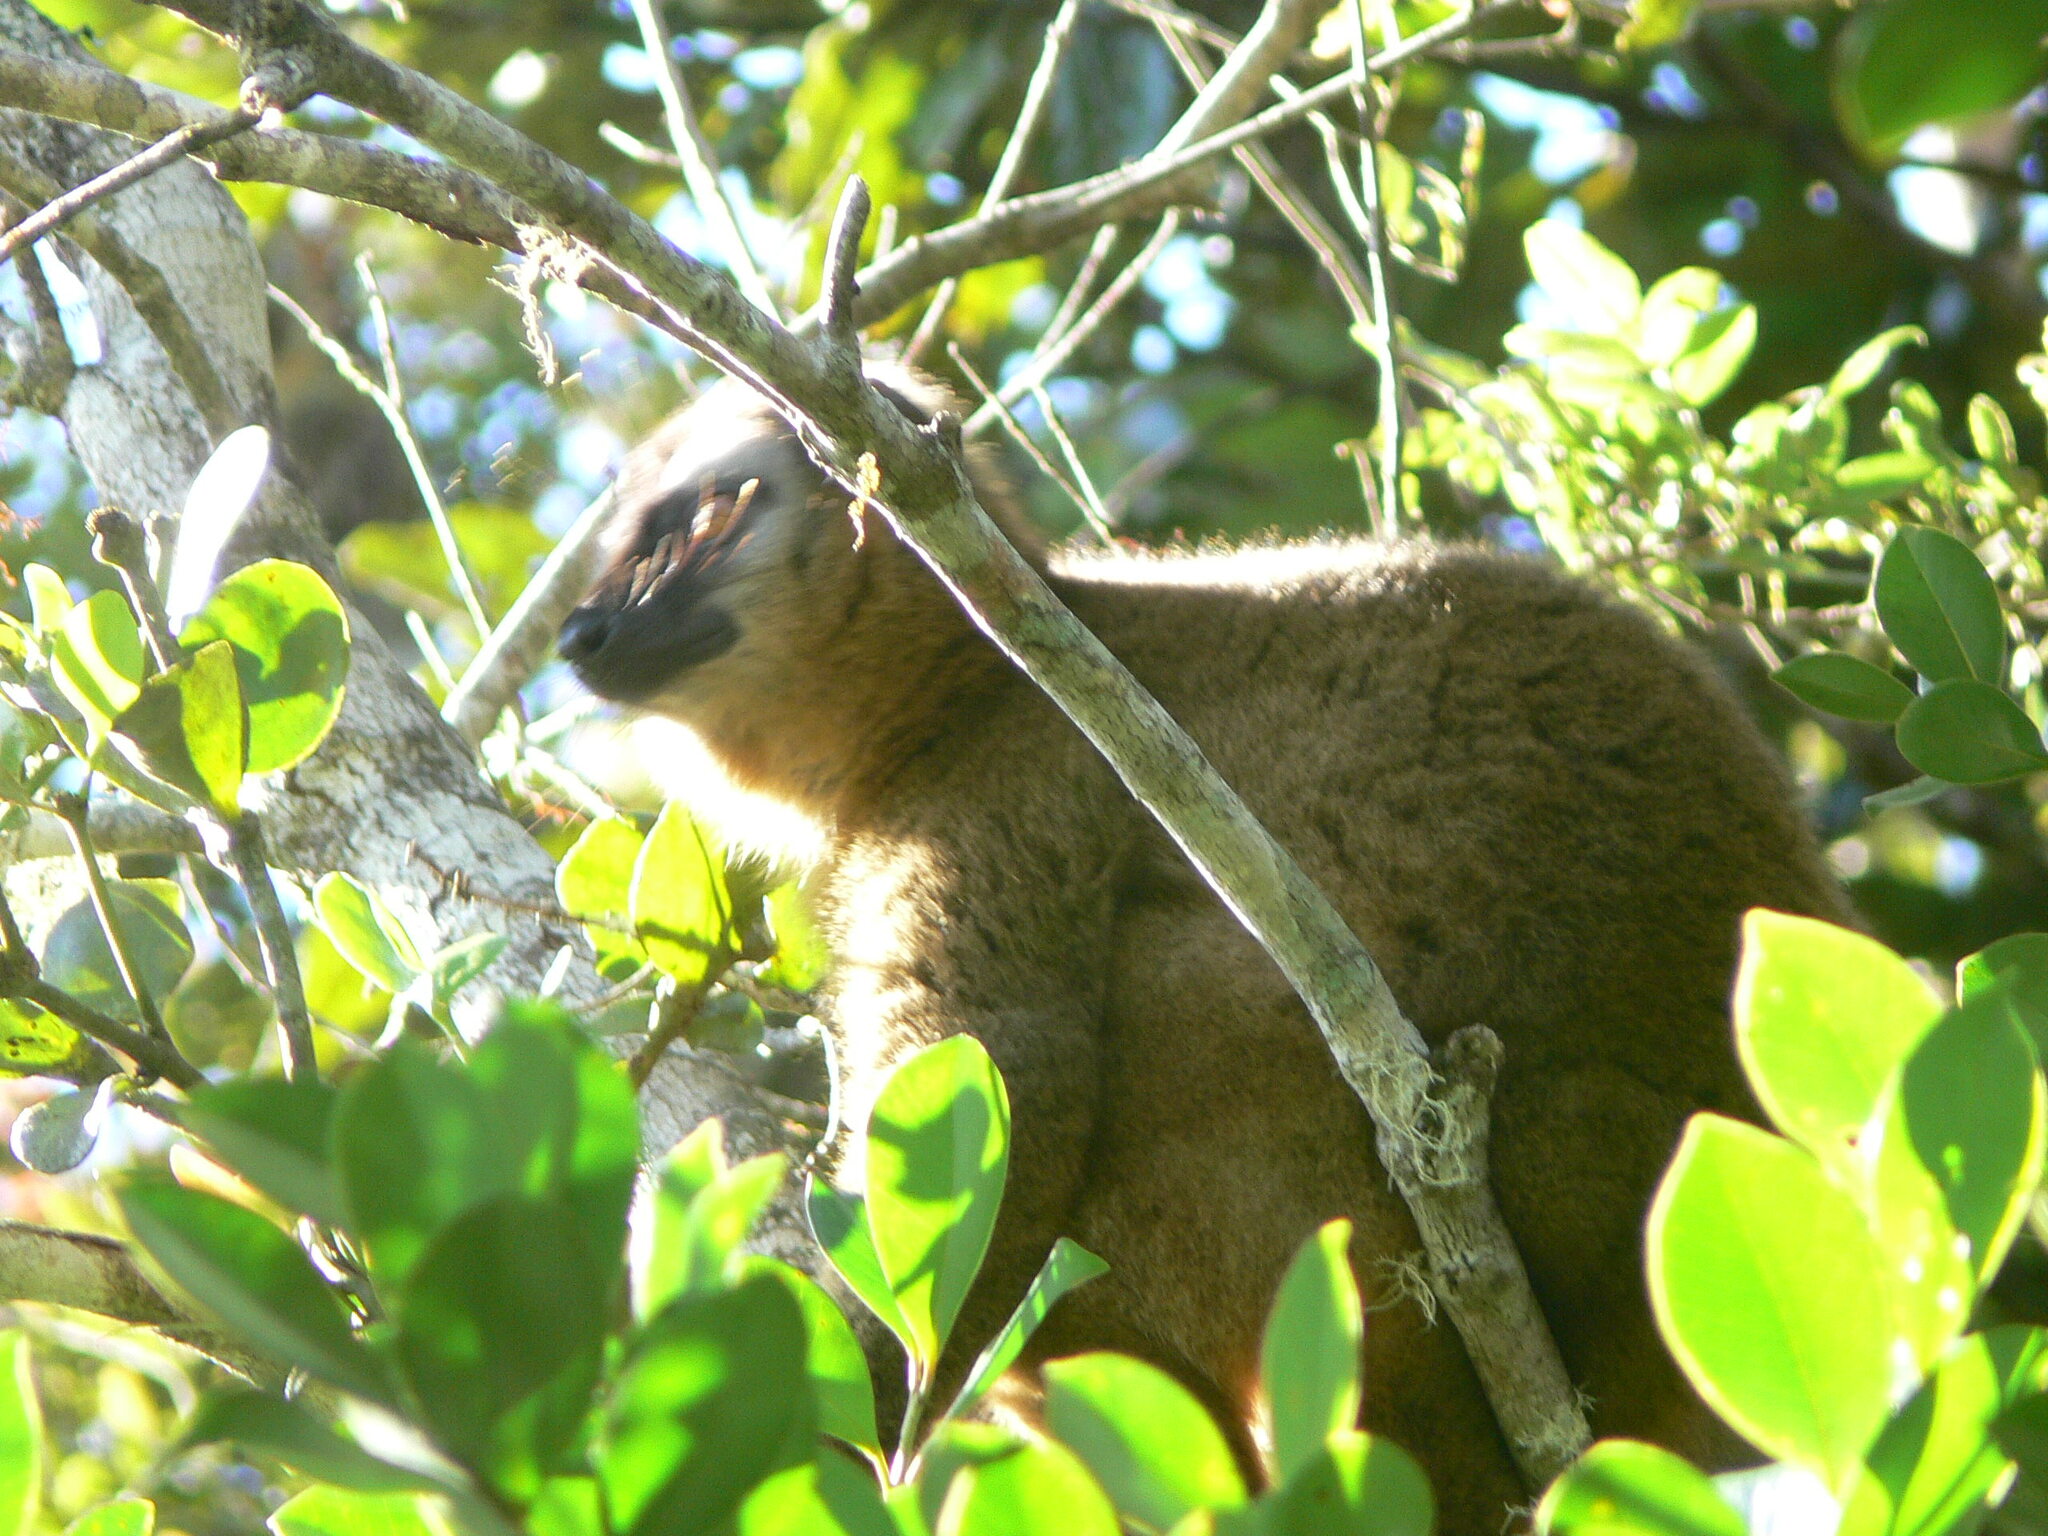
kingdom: Animalia
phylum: Chordata
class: Mammalia
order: Primates
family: Lemuridae
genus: Eulemur
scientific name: Eulemur rufifrons
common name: Red-fronted brown lemur
